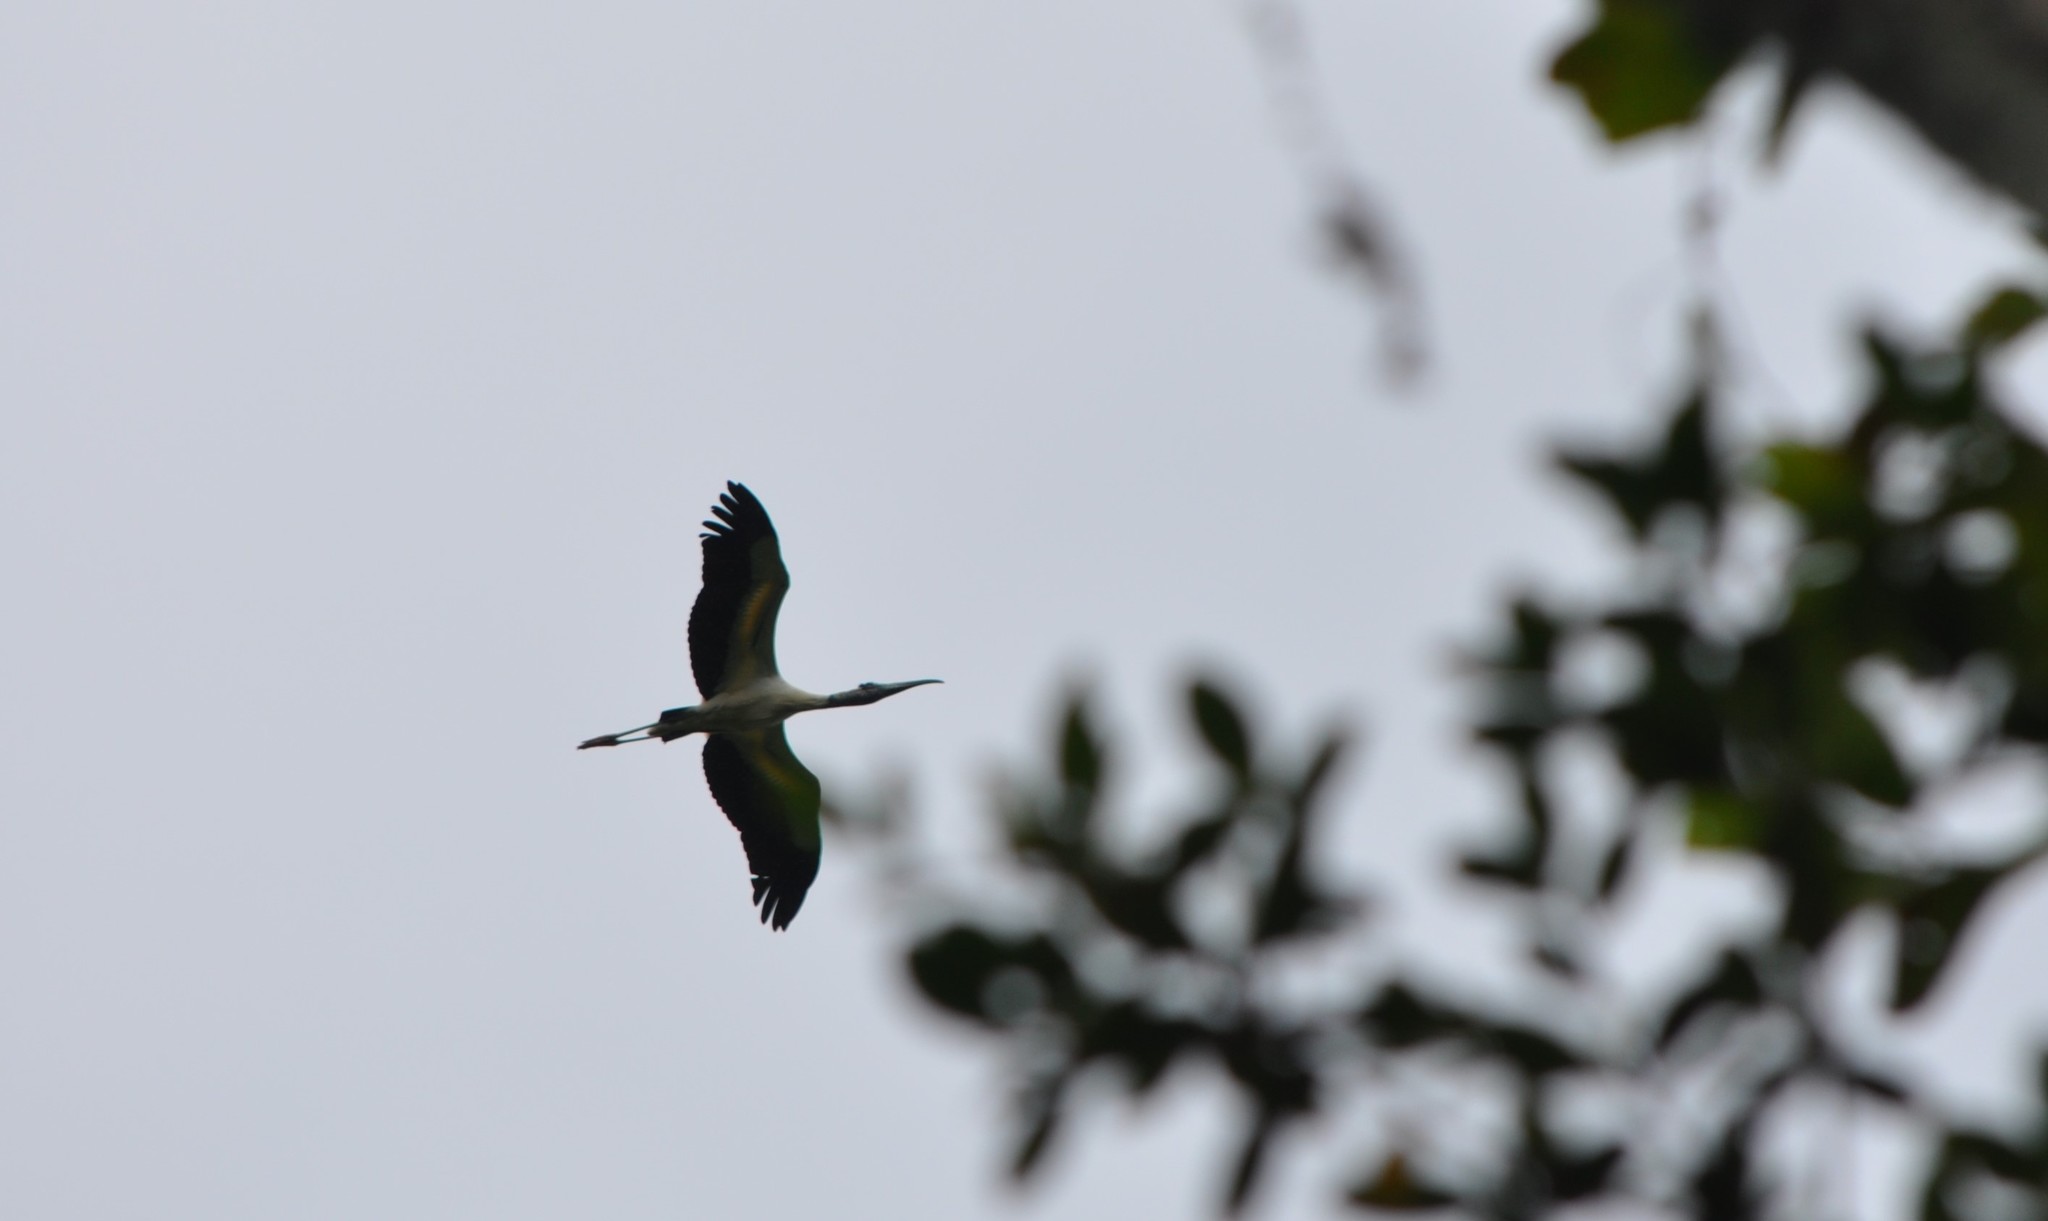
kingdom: Animalia
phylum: Chordata
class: Aves
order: Ciconiiformes
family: Ciconiidae
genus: Mycteria
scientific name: Mycteria americana
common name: Wood stork
